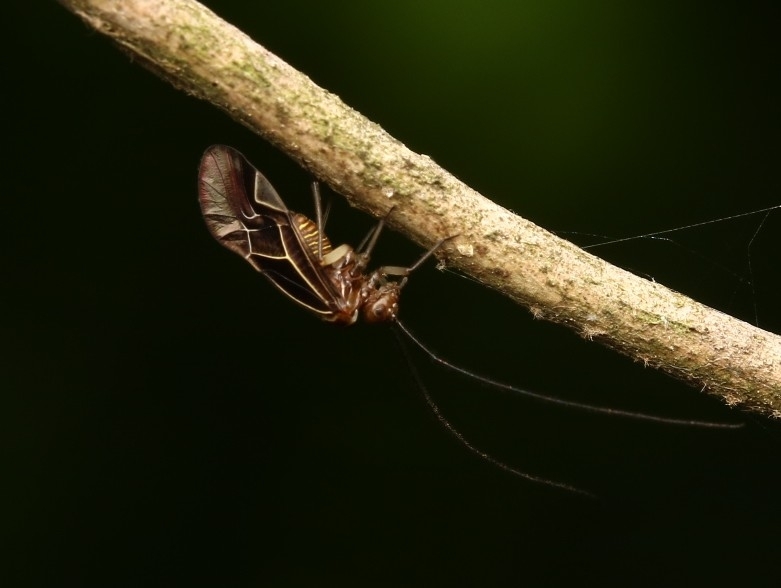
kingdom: Animalia
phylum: Arthropoda
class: Insecta
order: Psocodea
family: Psocidae
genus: Cerastipsocus
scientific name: Cerastipsocus venosus
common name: Tree cattle
